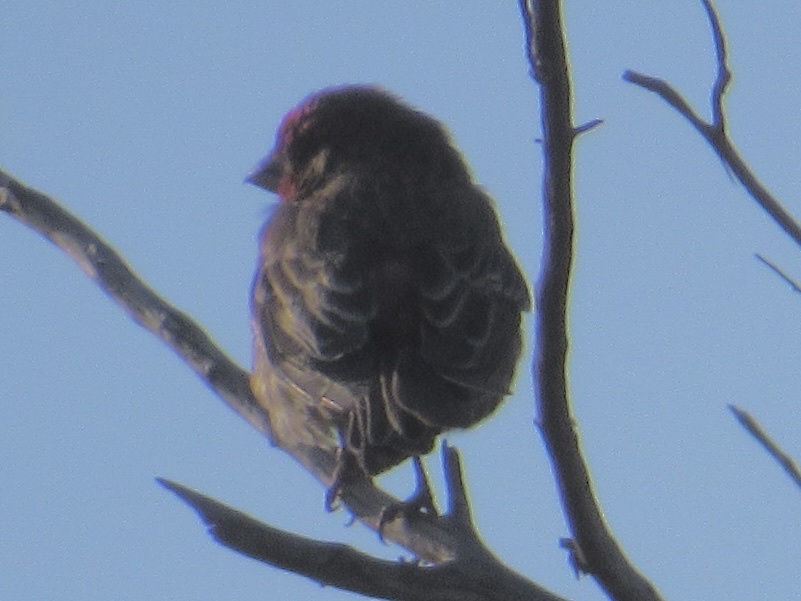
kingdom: Animalia
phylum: Chordata
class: Aves
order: Passeriformes
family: Fringillidae
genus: Haemorhous
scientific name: Haemorhous mexicanus
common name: House finch
